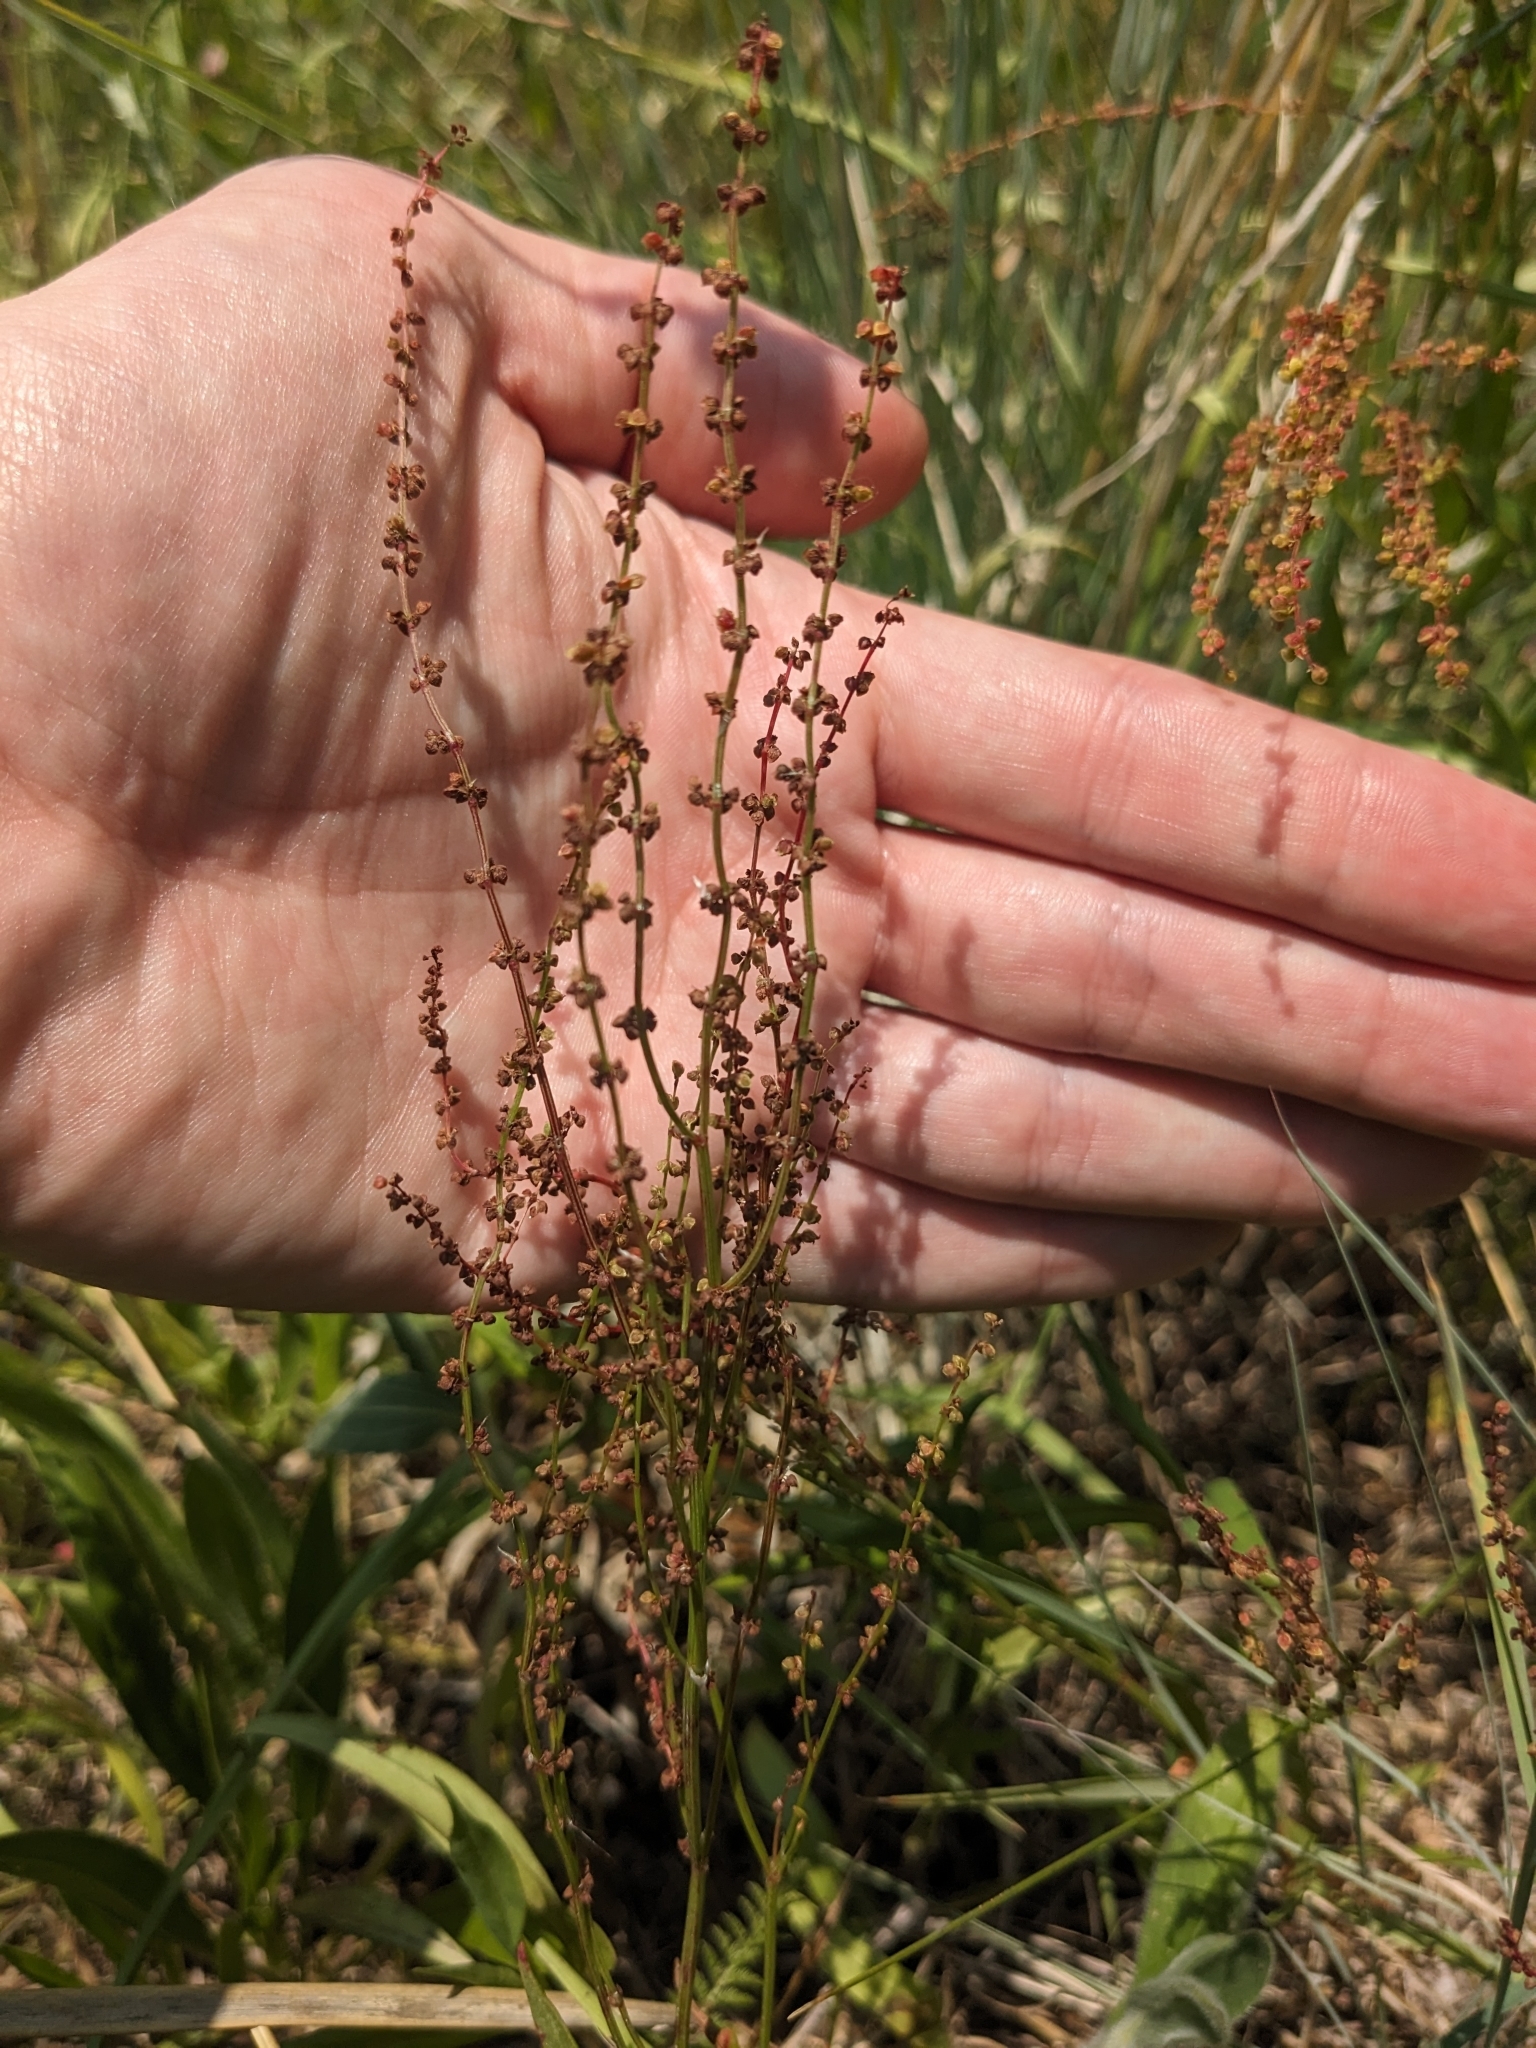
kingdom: Plantae
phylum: Tracheophyta
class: Magnoliopsida
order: Caryophyllales
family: Polygonaceae
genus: Rumex
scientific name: Rumex acetosella
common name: Common sheep sorrel
